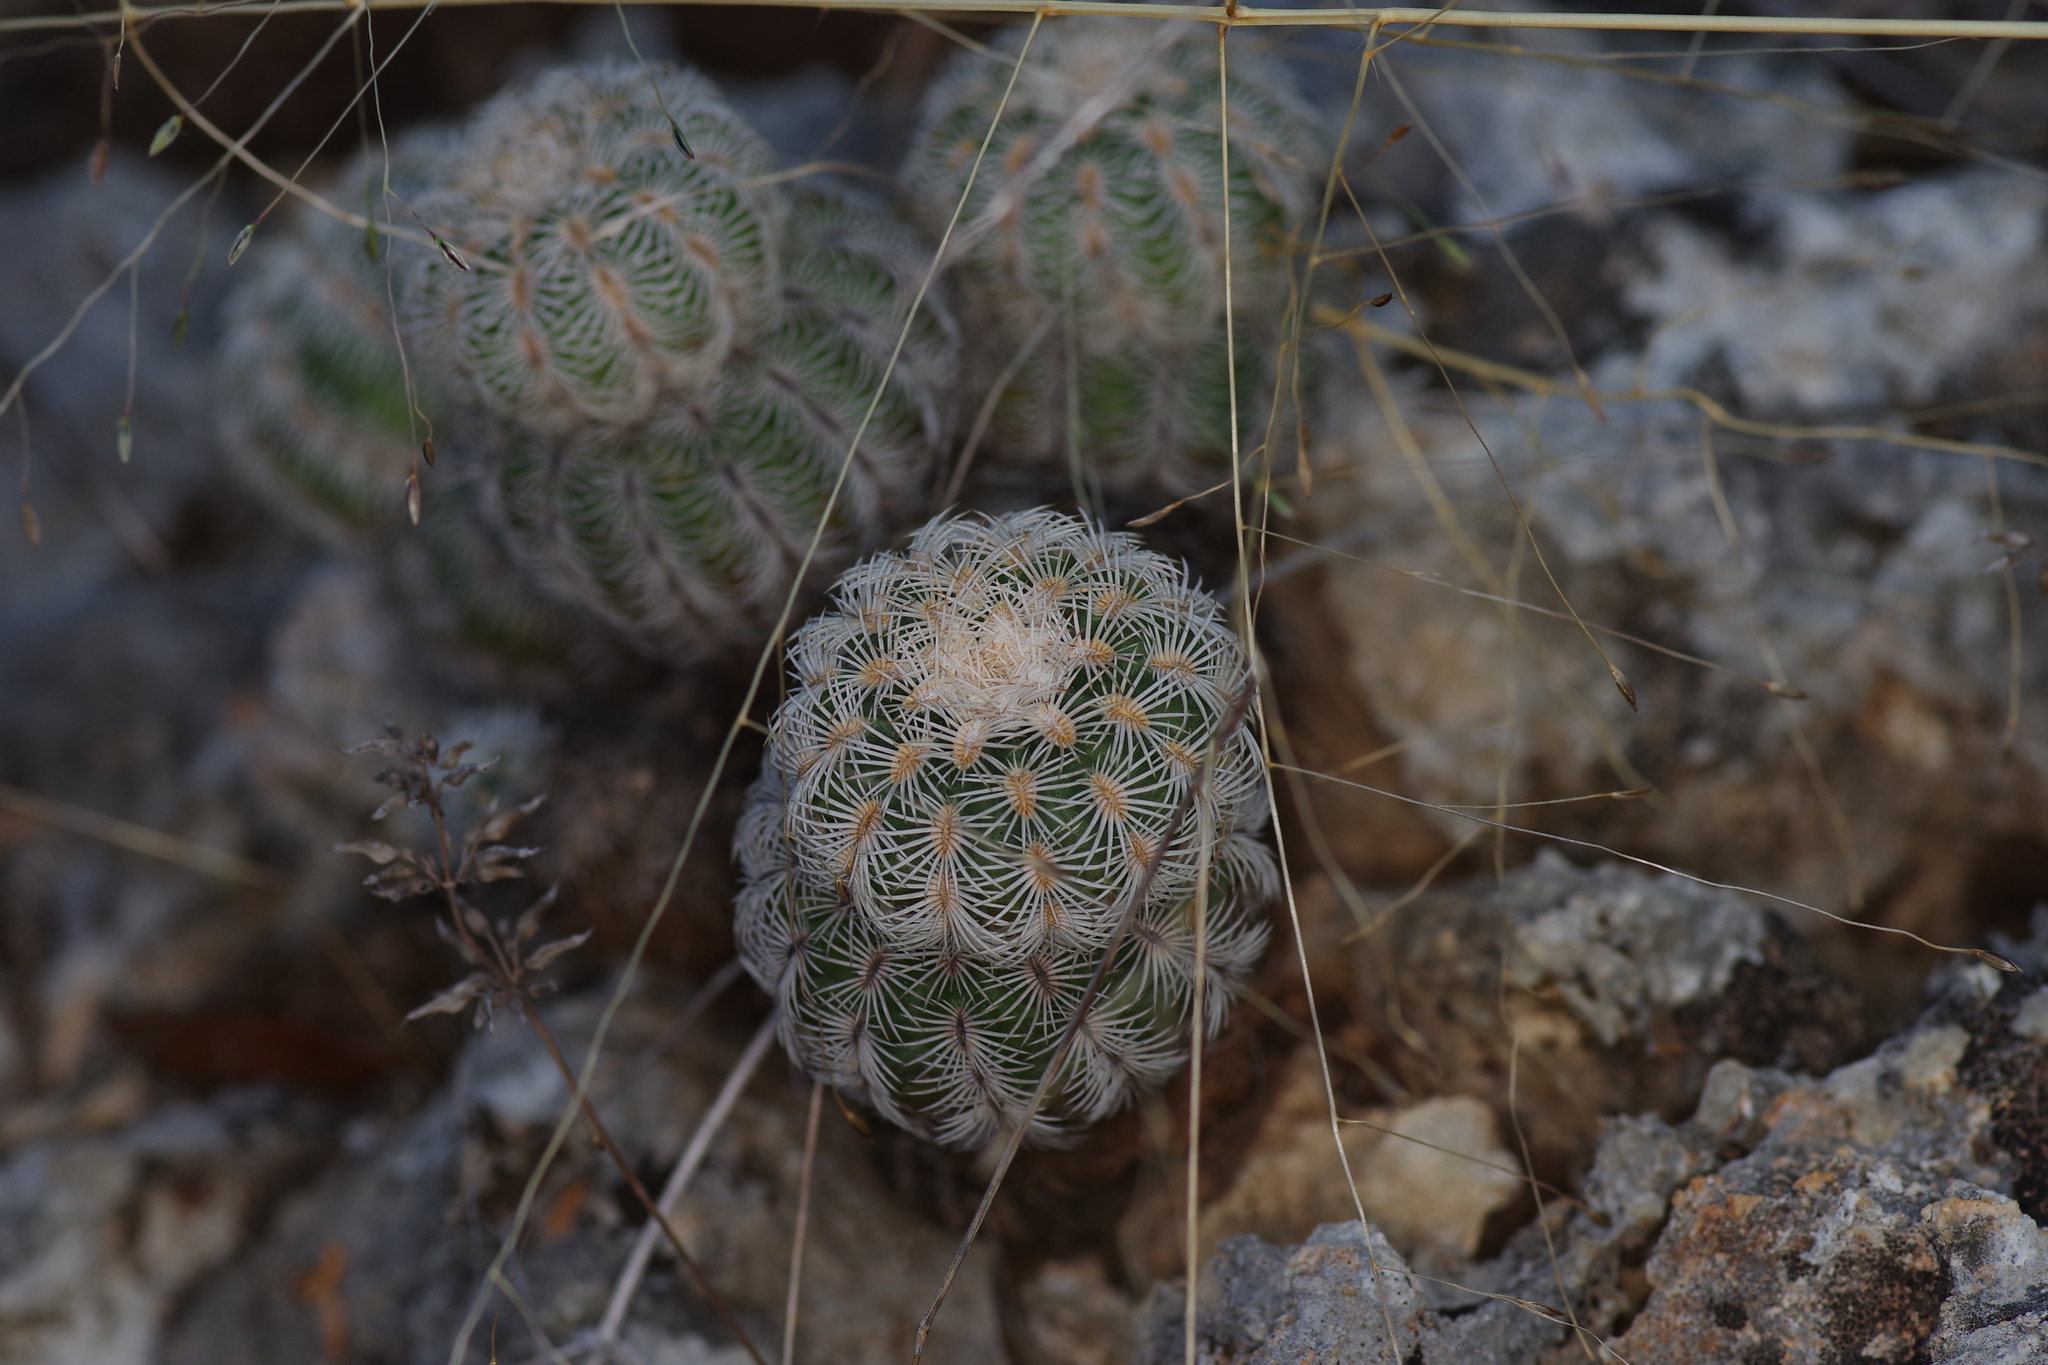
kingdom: Plantae
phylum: Tracheophyta
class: Magnoliopsida
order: Caryophyllales
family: Cactaceae
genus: Echinocereus
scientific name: Echinocereus reichenbachii
